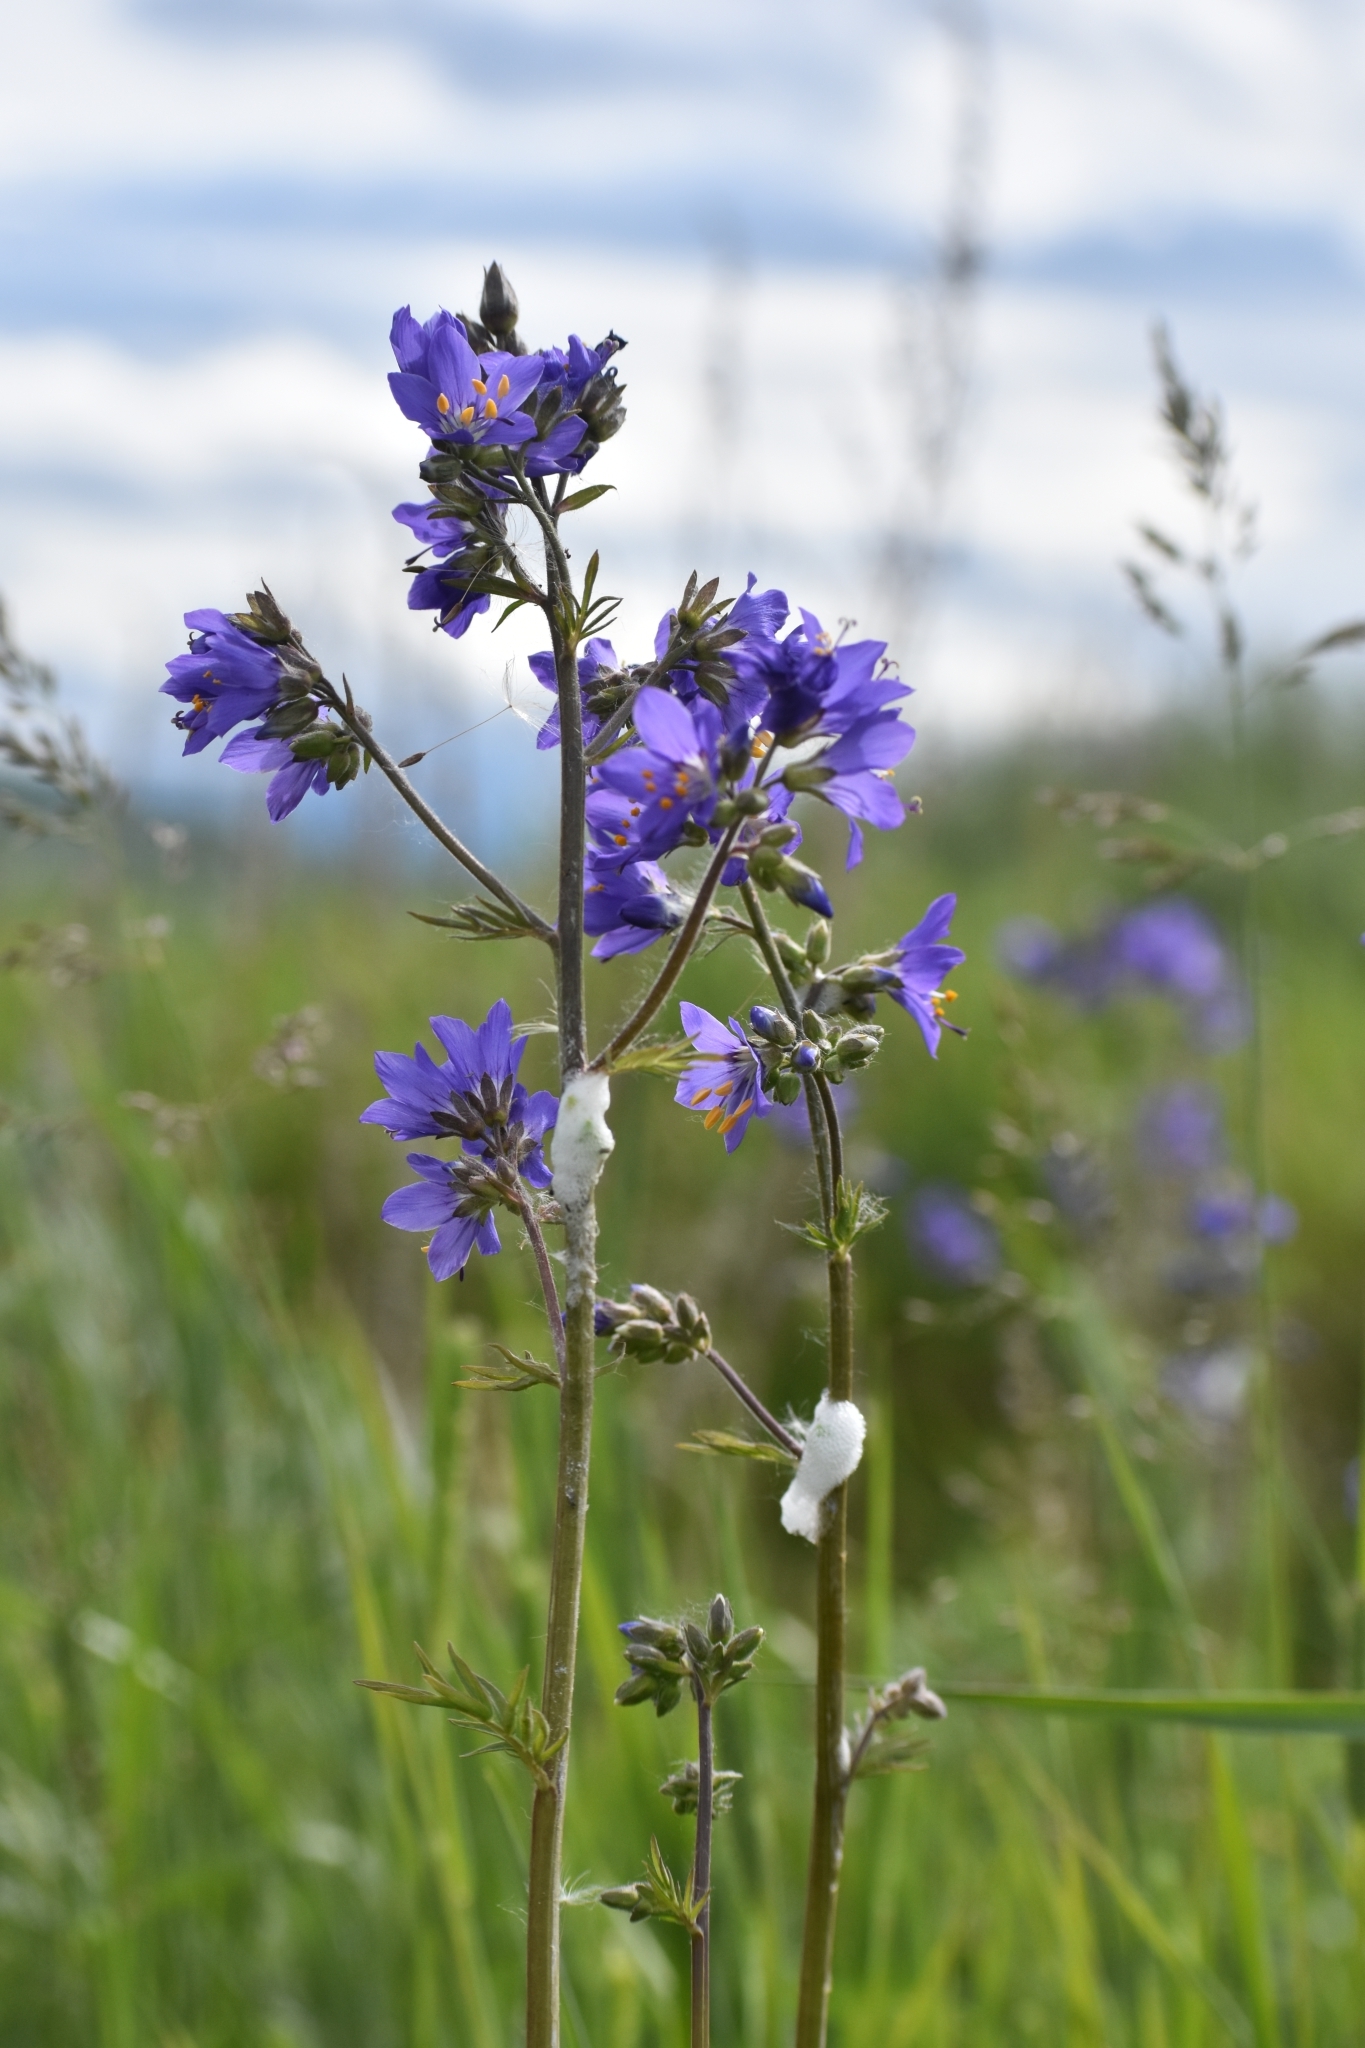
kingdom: Plantae
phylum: Tracheophyta
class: Magnoliopsida
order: Ericales
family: Polemoniaceae
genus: Polemonium
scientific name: Polemonium caeruleum
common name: Jacob's-ladder
